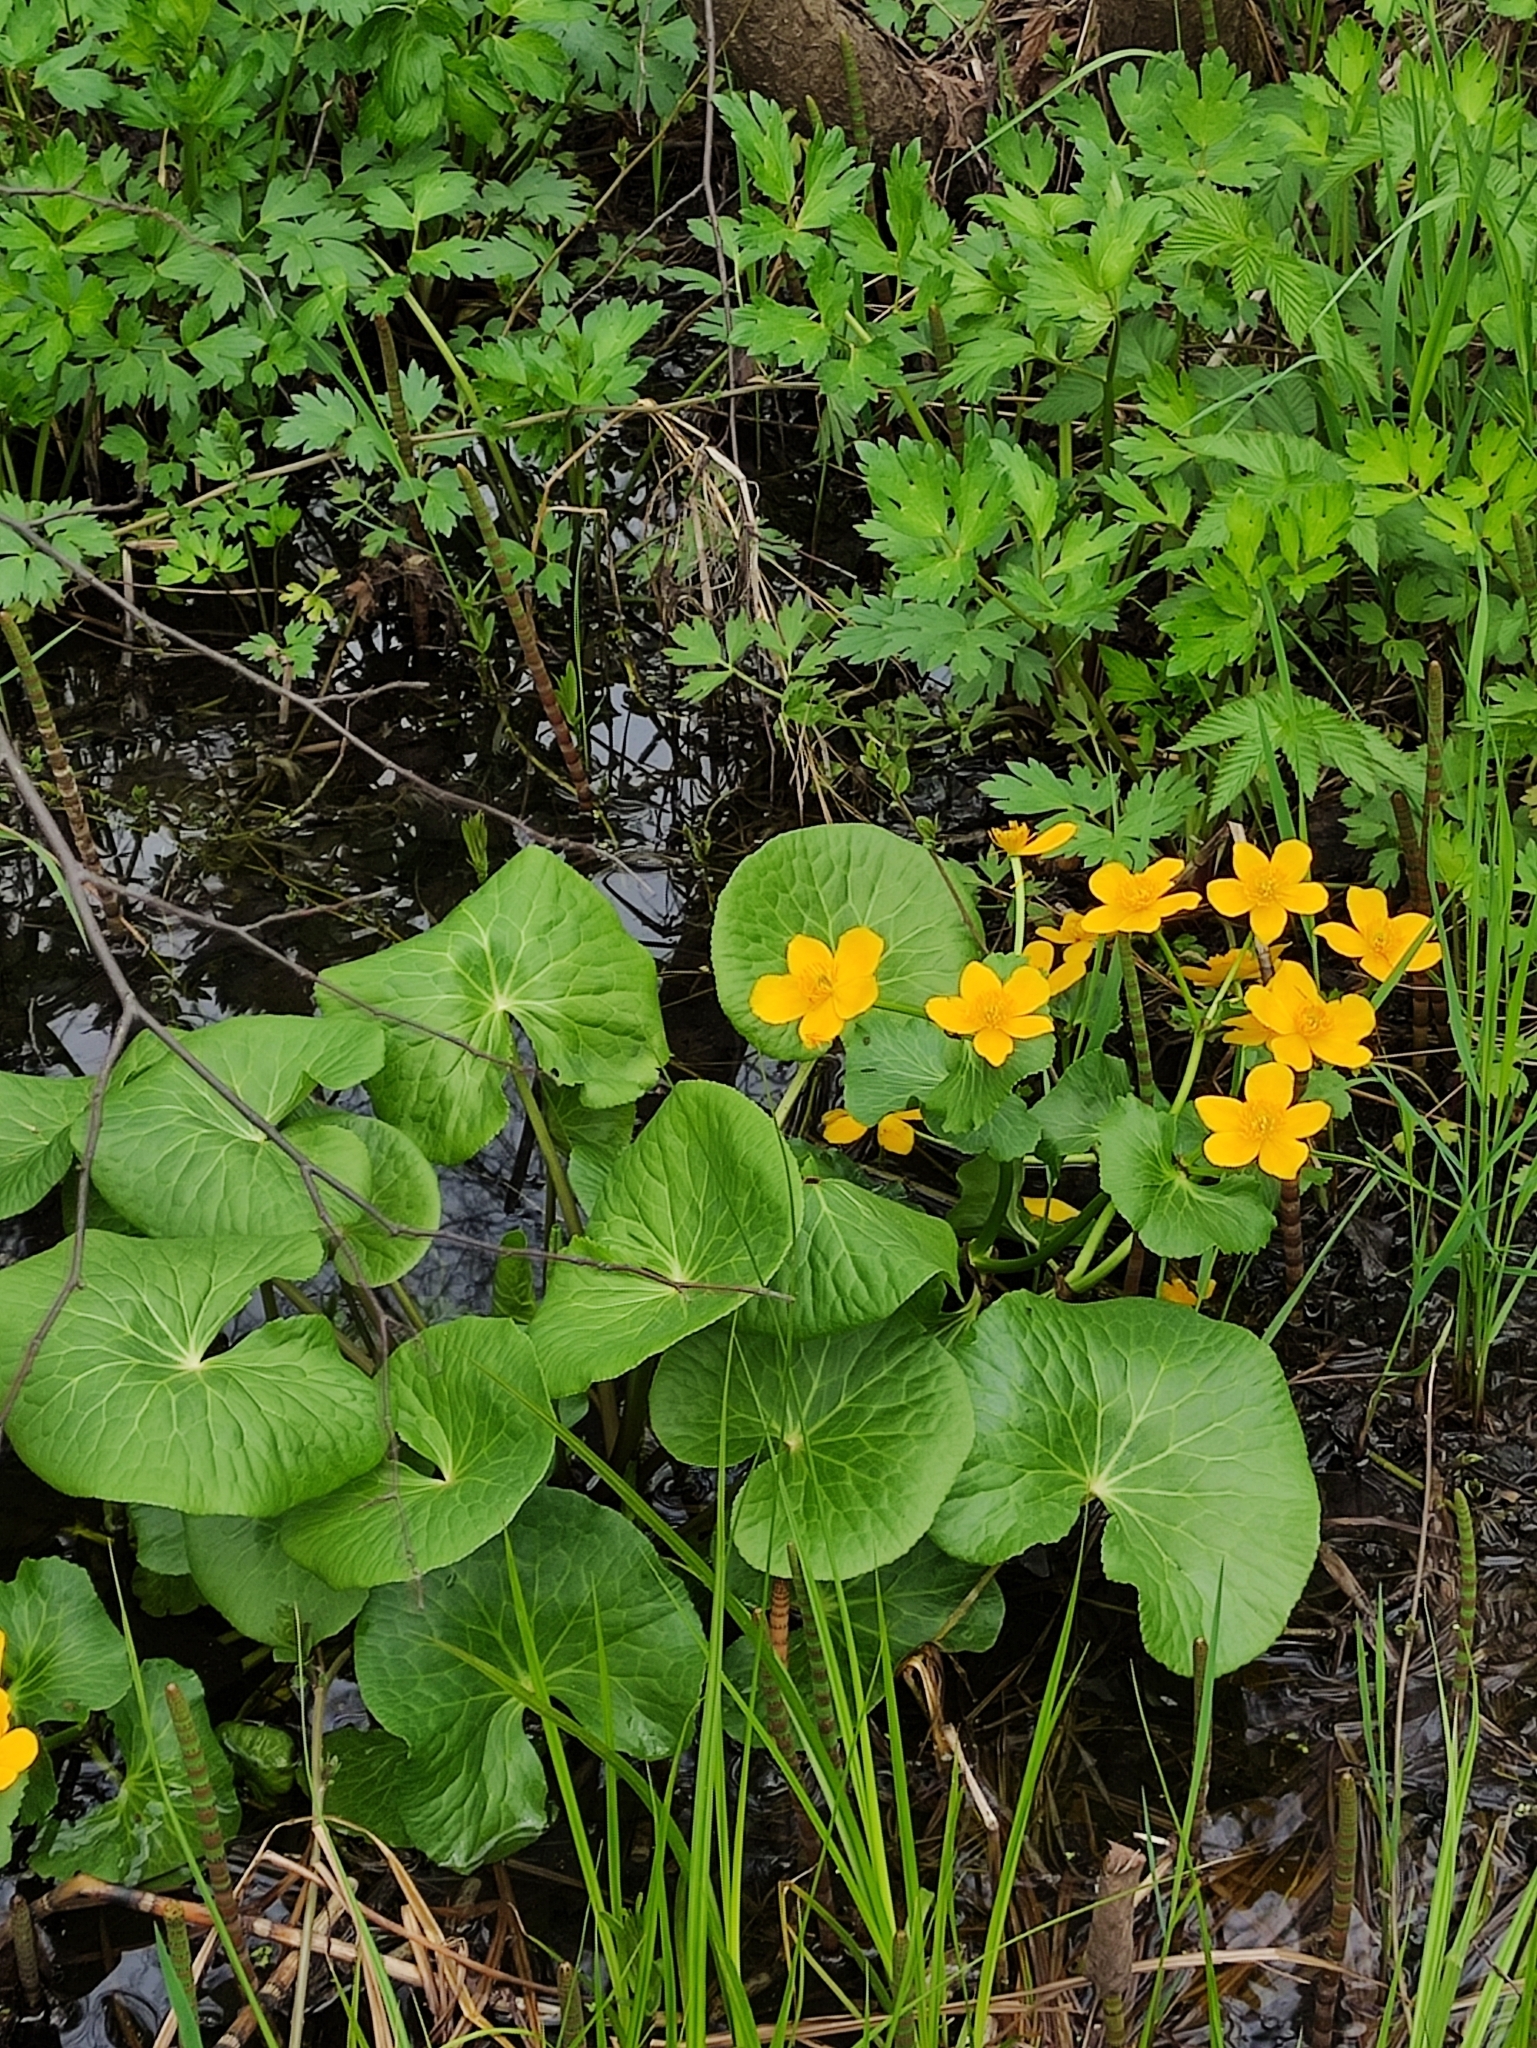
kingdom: Plantae
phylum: Tracheophyta
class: Magnoliopsida
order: Ranunculales
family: Ranunculaceae
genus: Caltha
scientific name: Caltha palustris
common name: Marsh marigold
